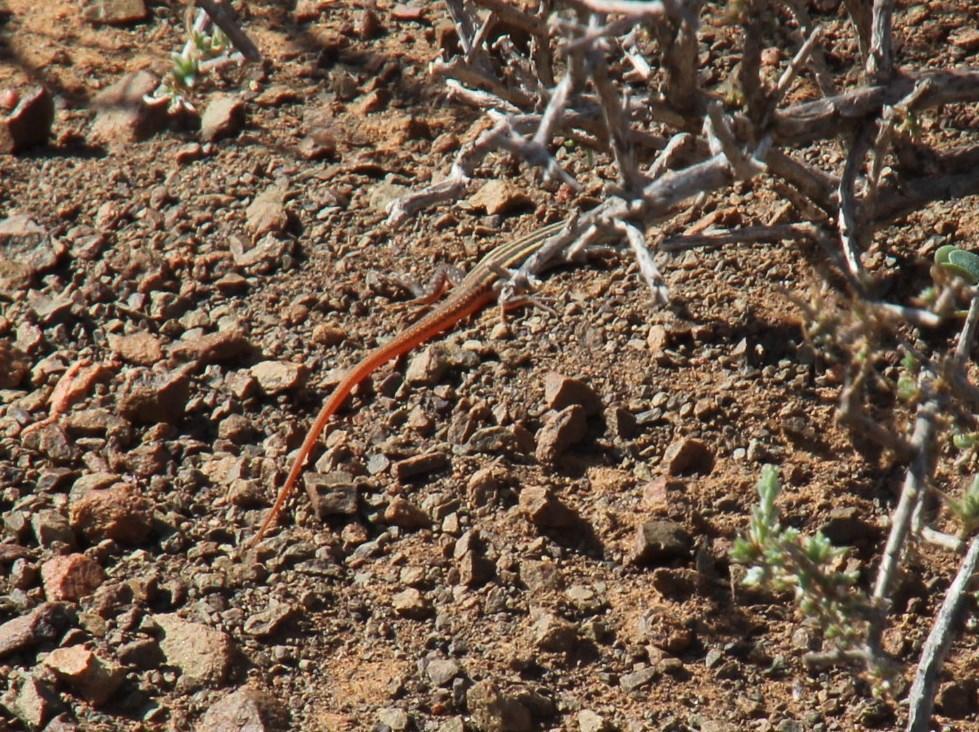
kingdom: Animalia
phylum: Chordata
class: Squamata
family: Lacertidae
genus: Pedioplanis
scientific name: Pedioplanis namaquensis
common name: Namaqua sand lizard
